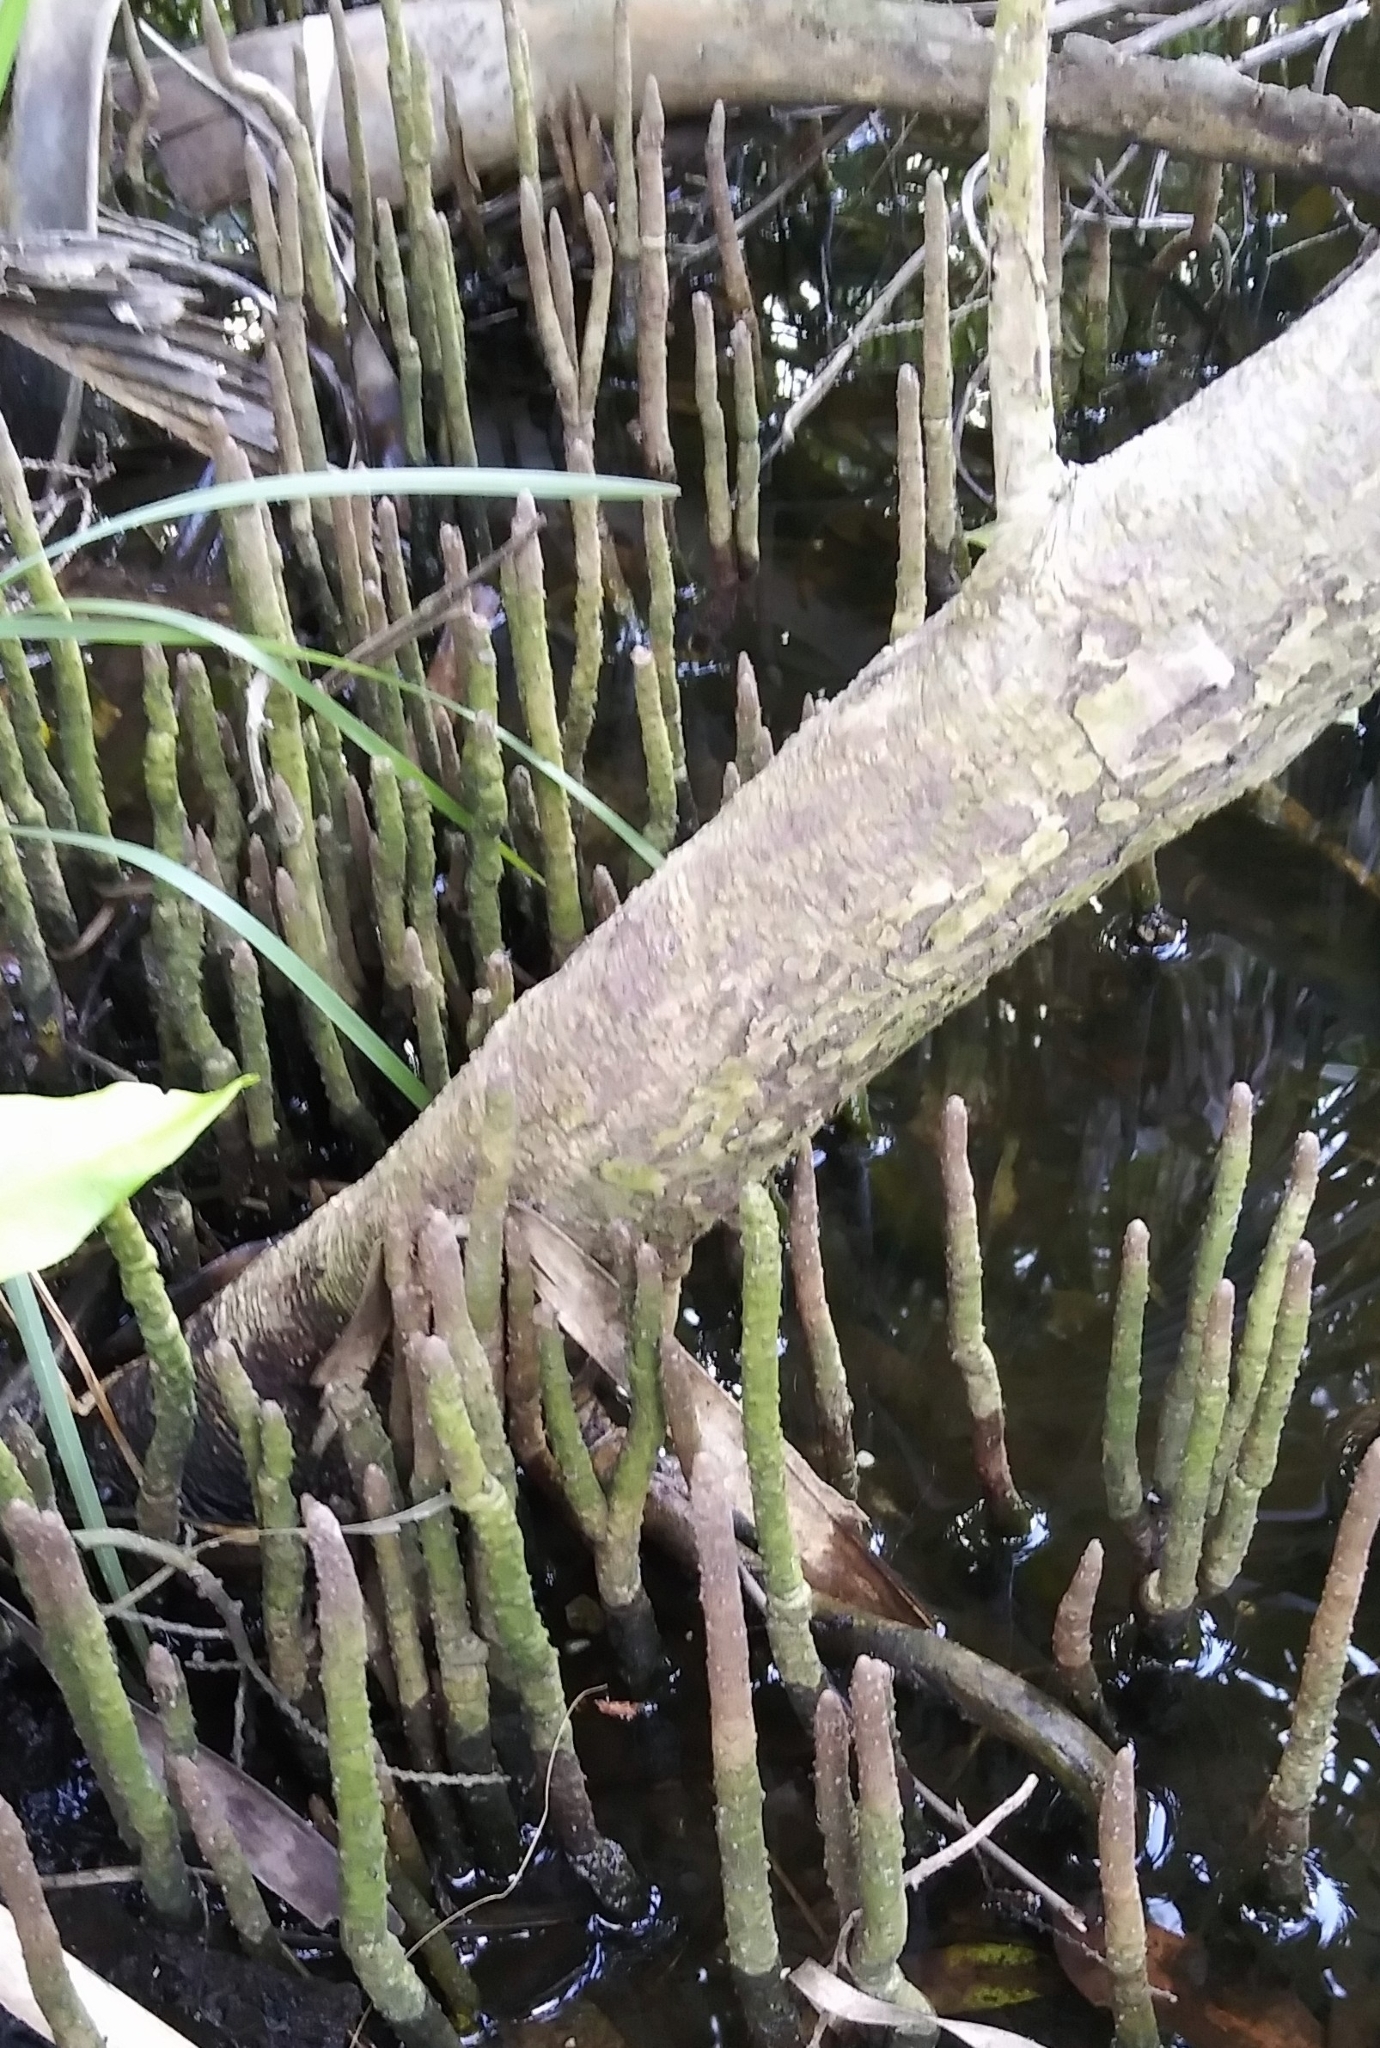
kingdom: Plantae
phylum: Tracheophyta
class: Magnoliopsida
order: Lamiales
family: Acanthaceae
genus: Avicennia
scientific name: Avicennia germinans
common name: Black mangrove
